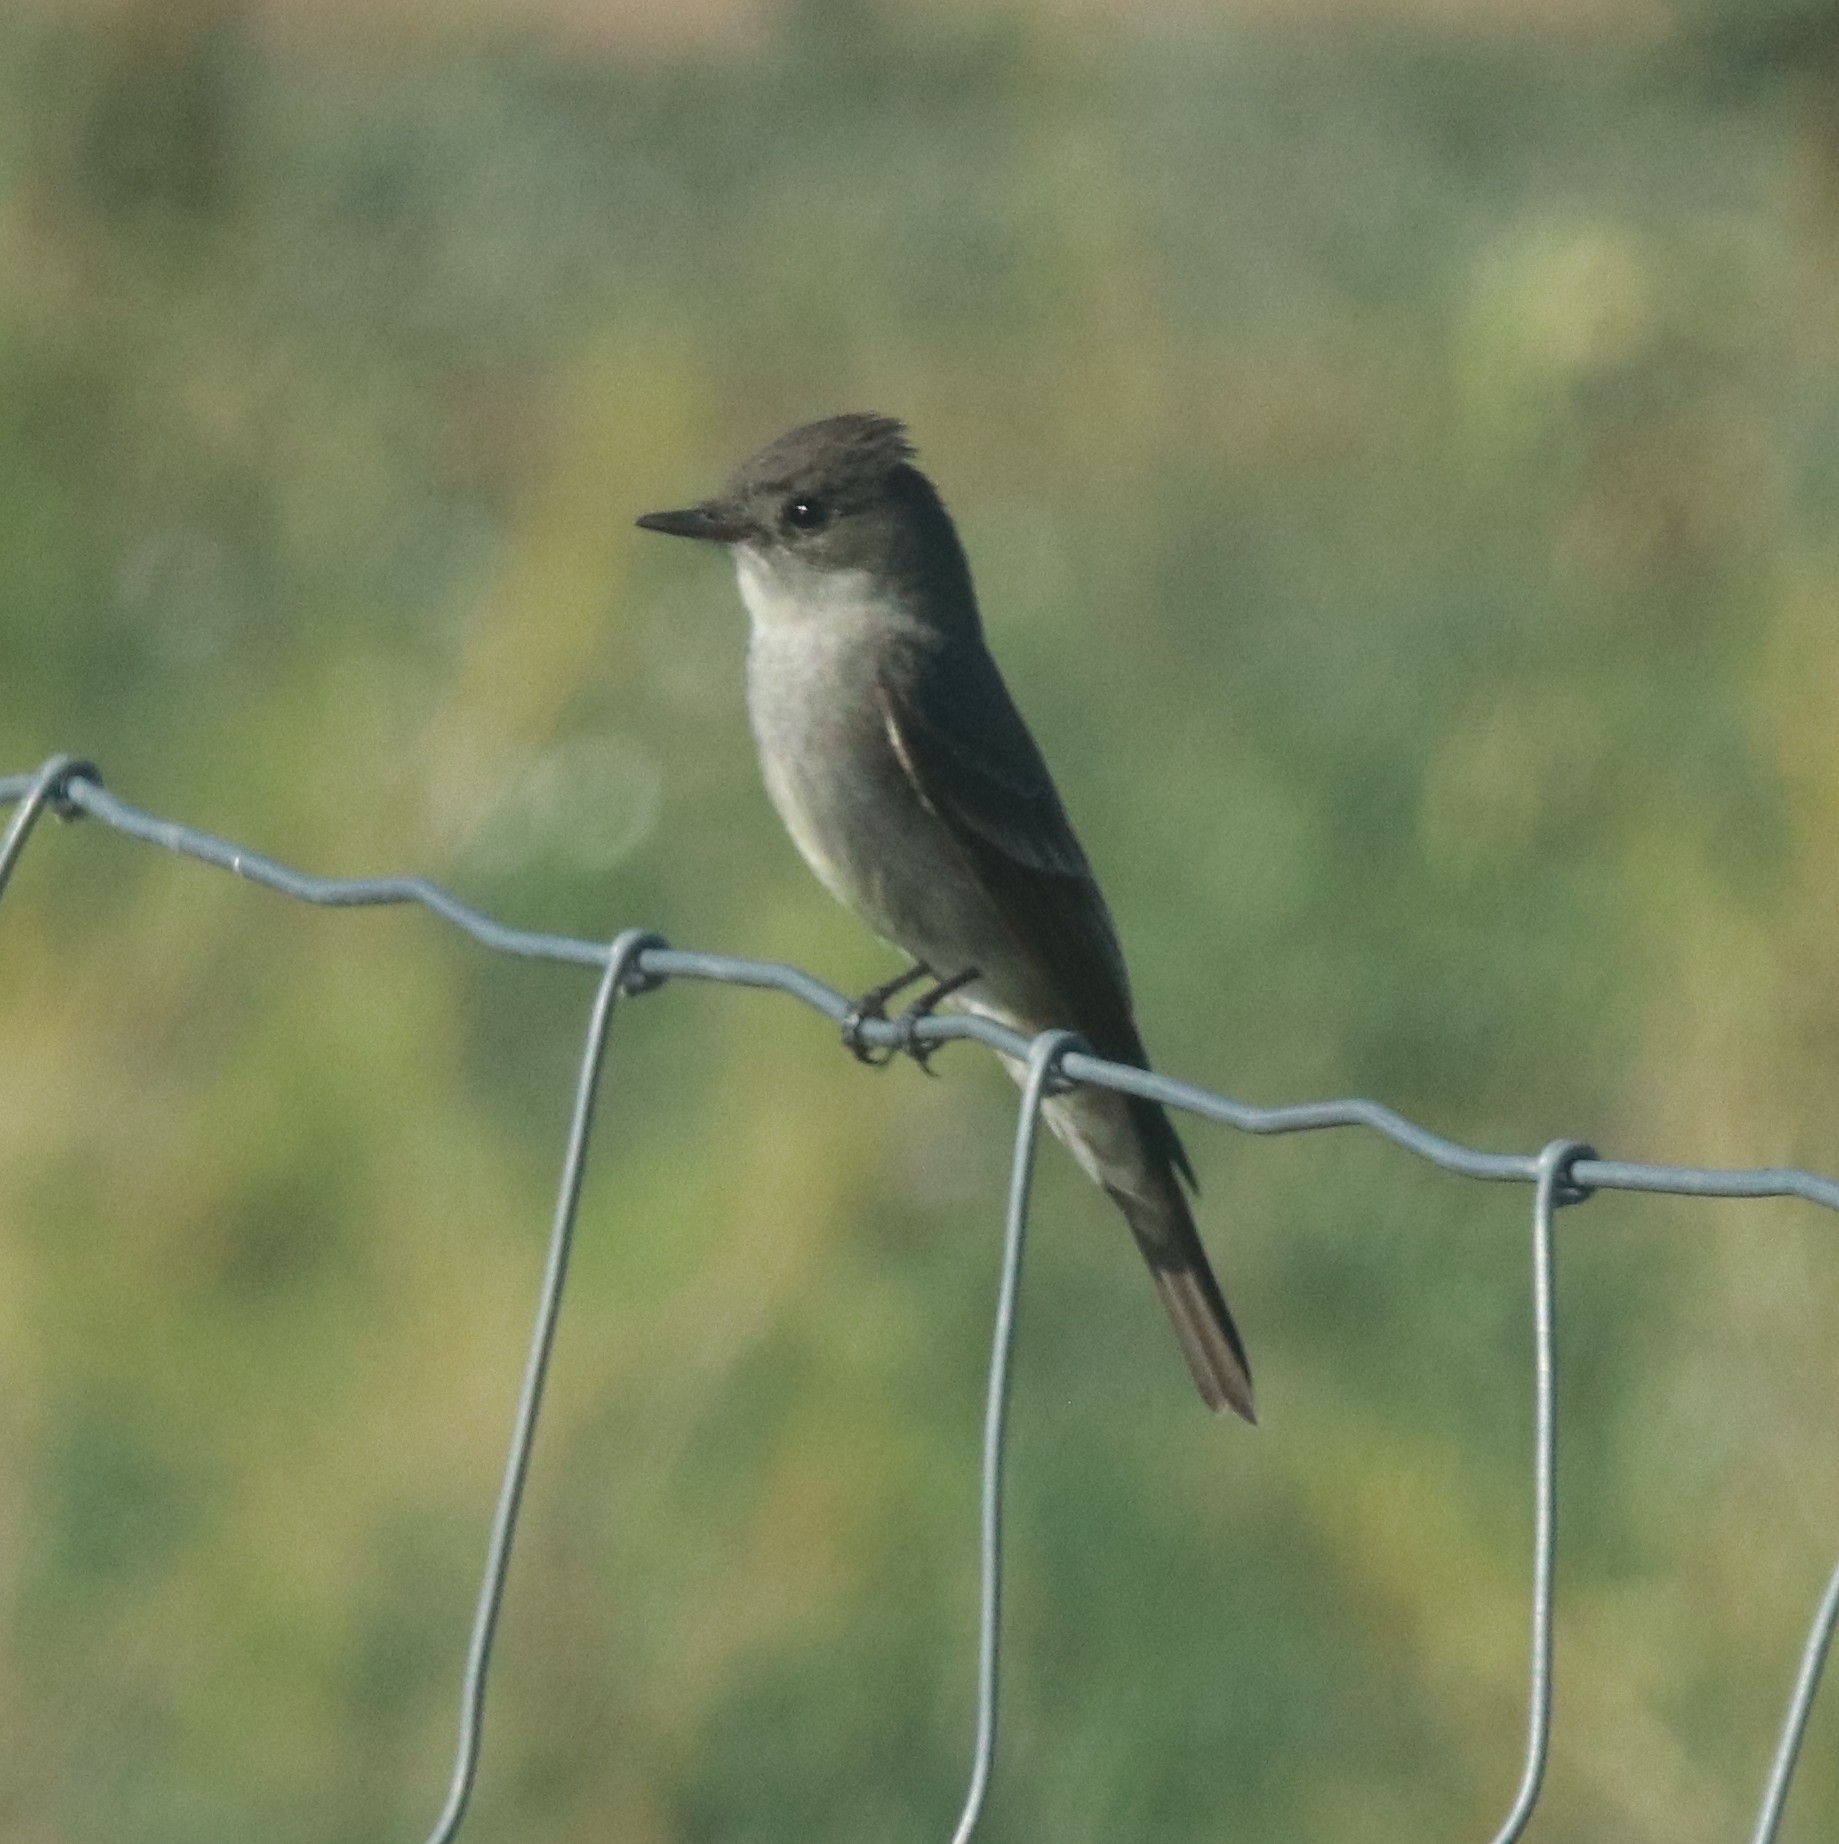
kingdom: Animalia
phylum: Chordata
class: Aves
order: Passeriformes
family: Tyrannidae
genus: Contopus
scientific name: Contopus sordidulus
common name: Western wood-pewee
